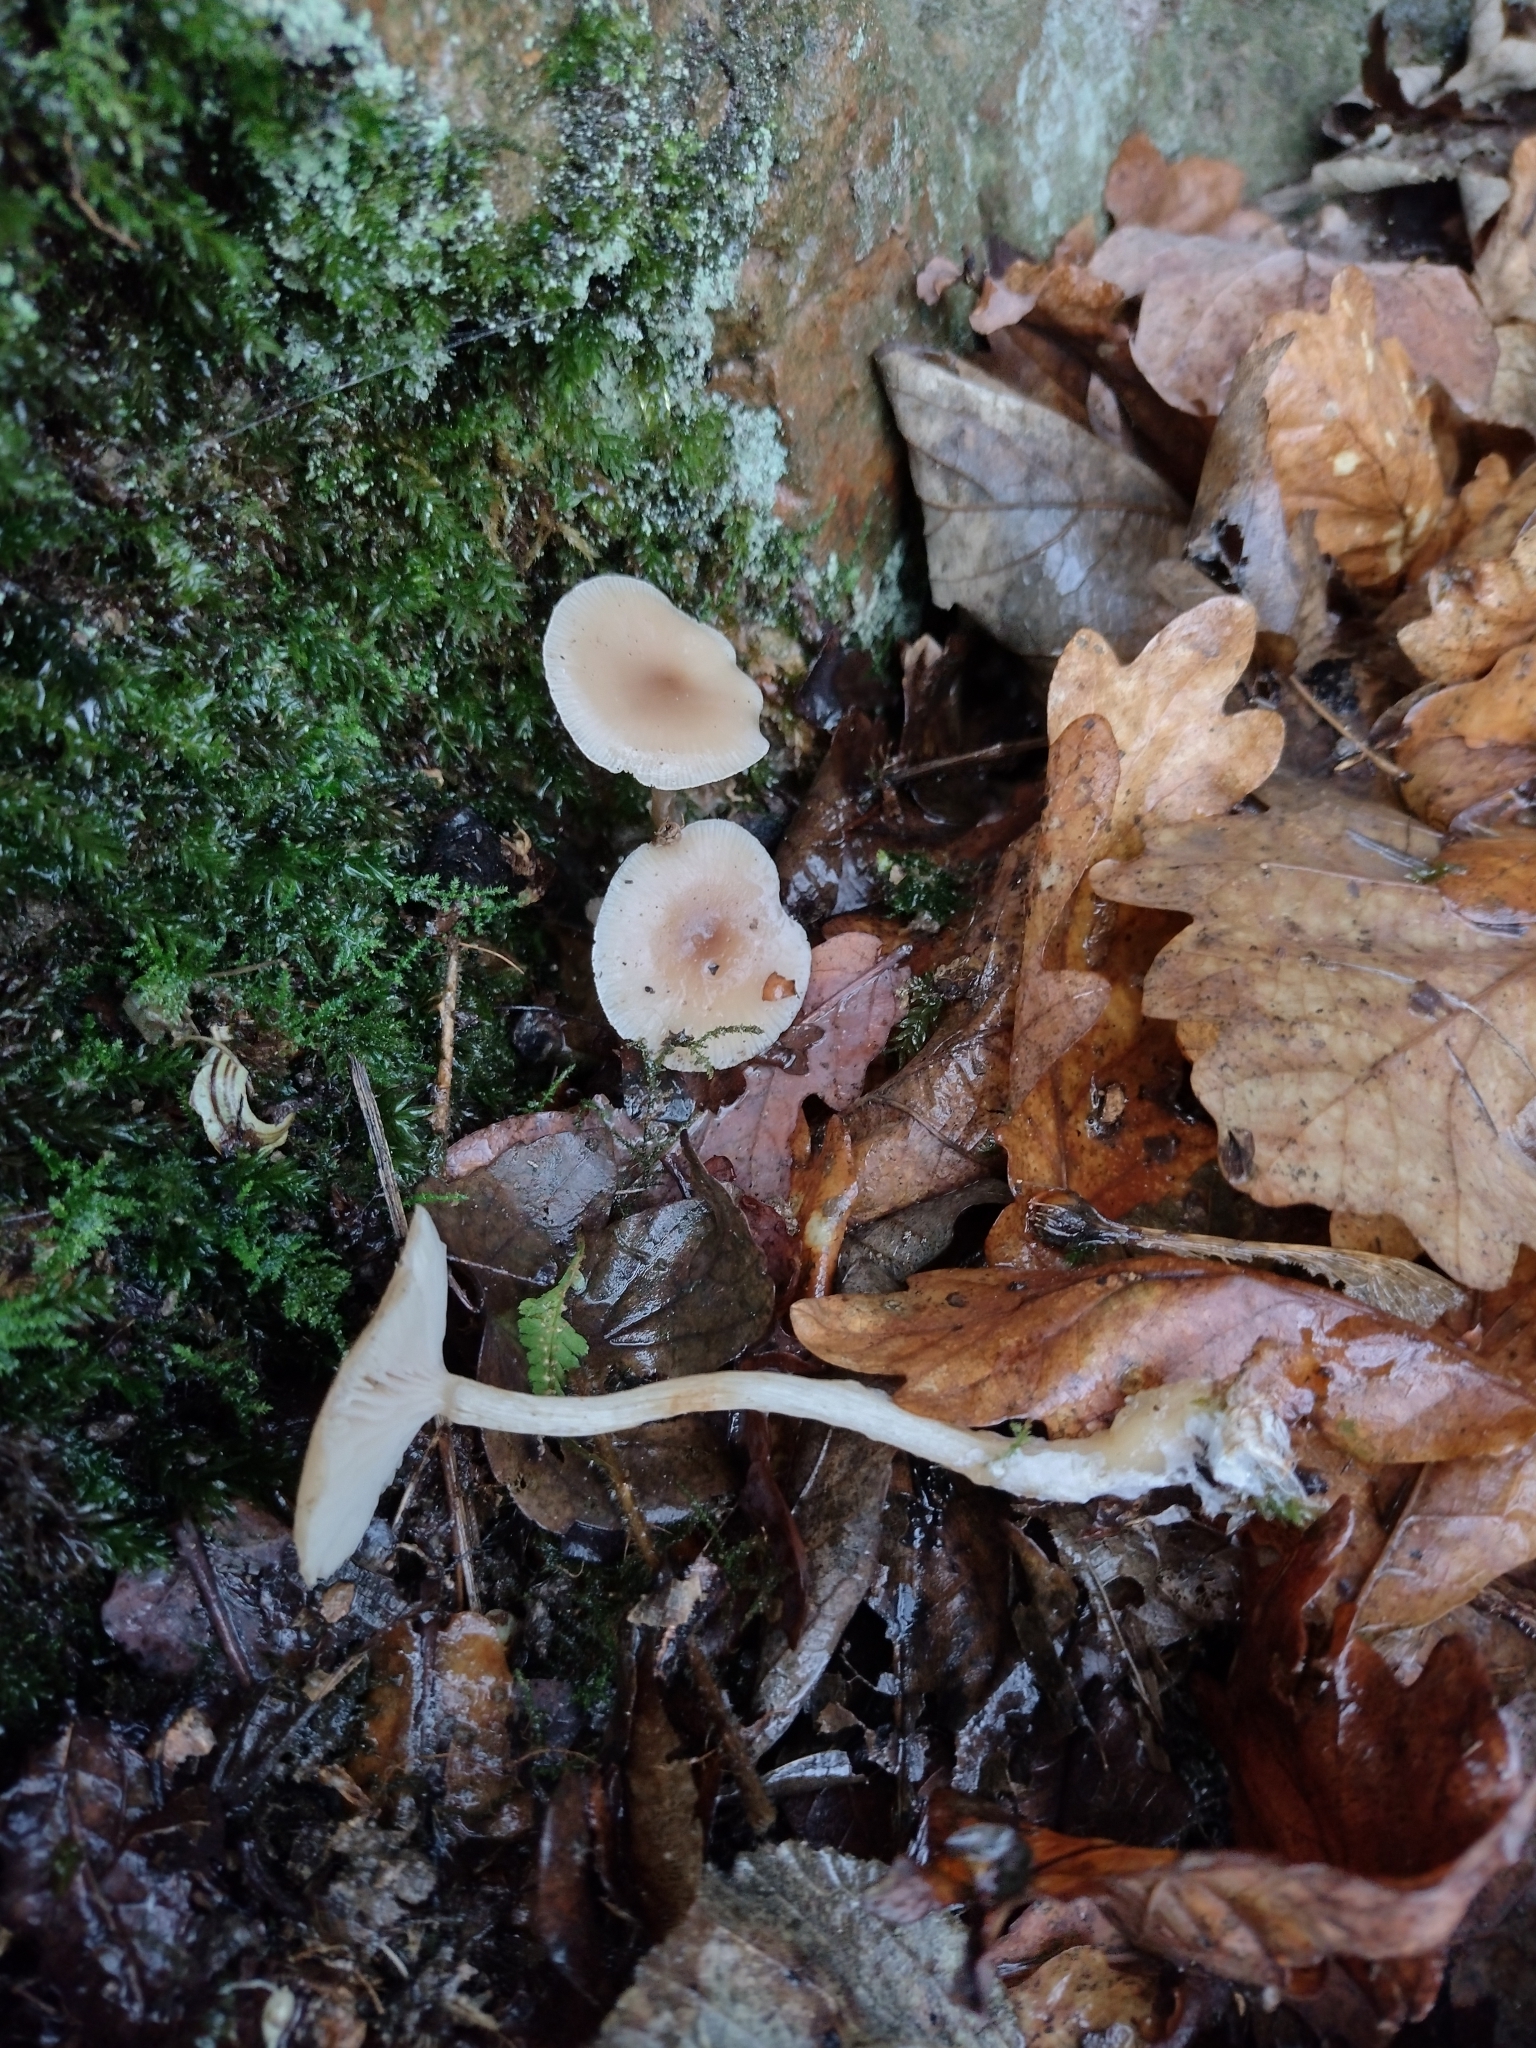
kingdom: Fungi
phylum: Basidiomycota
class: Agaricomycetes
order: Agaricales
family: Tricholomataceae
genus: Clitocybe
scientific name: Clitocybe fragrans
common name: Fragrant funnel
